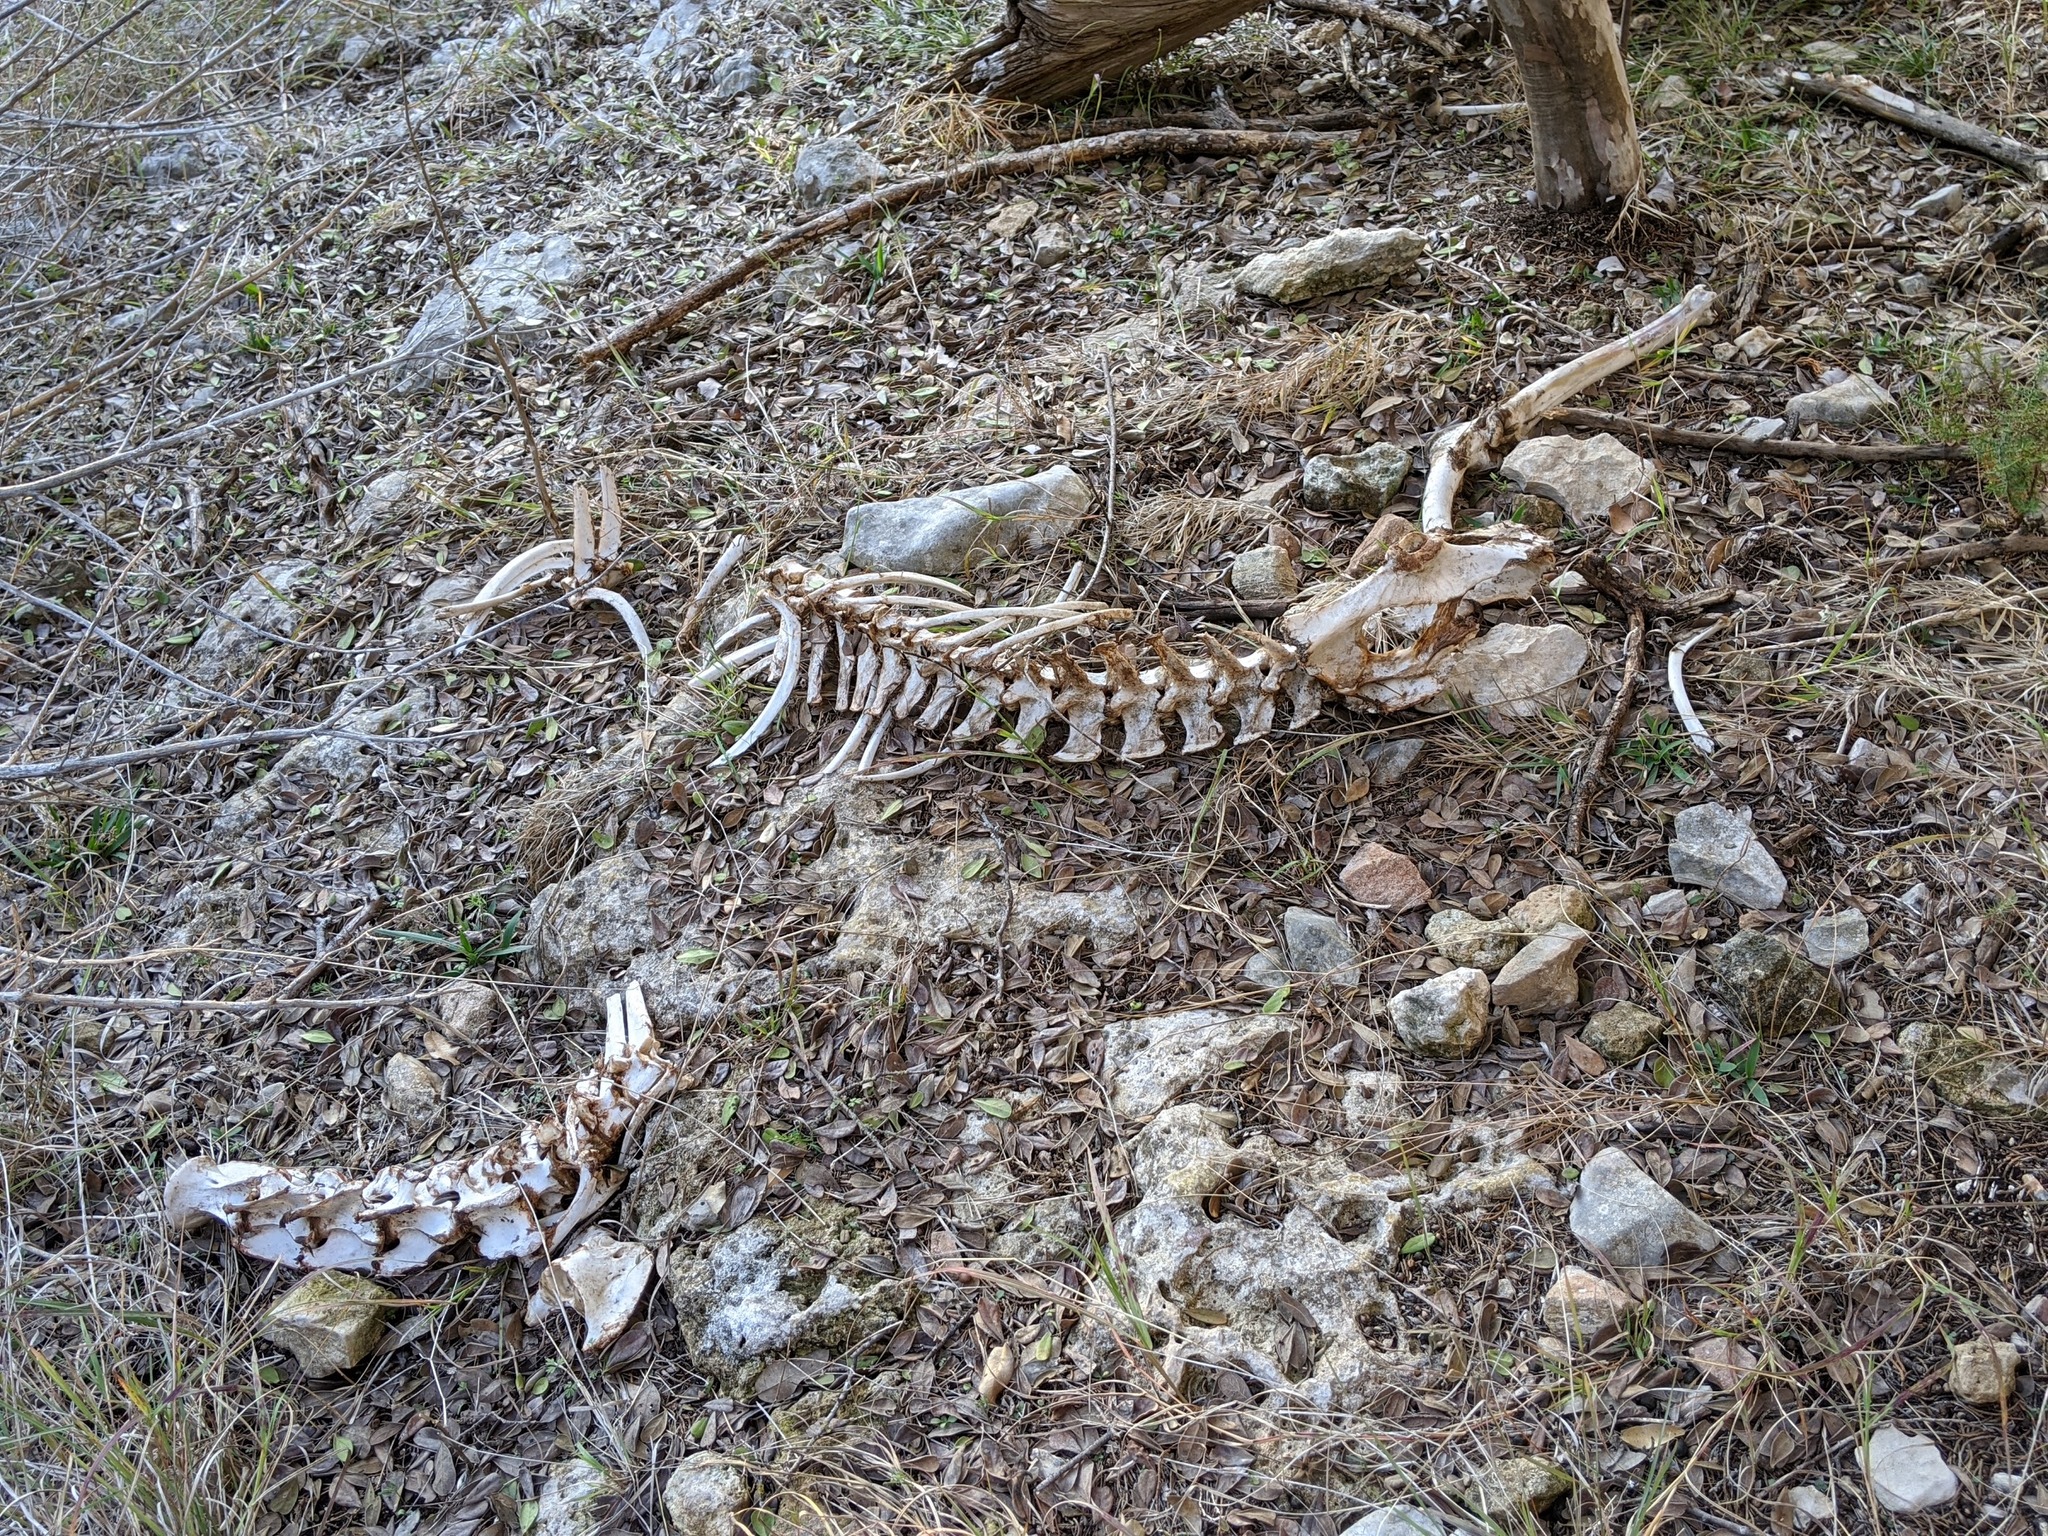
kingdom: Animalia
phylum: Chordata
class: Mammalia
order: Artiodactyla
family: Cervidae
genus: Odocoileus
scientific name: Odocoileus virginianus
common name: White-tailed deer
